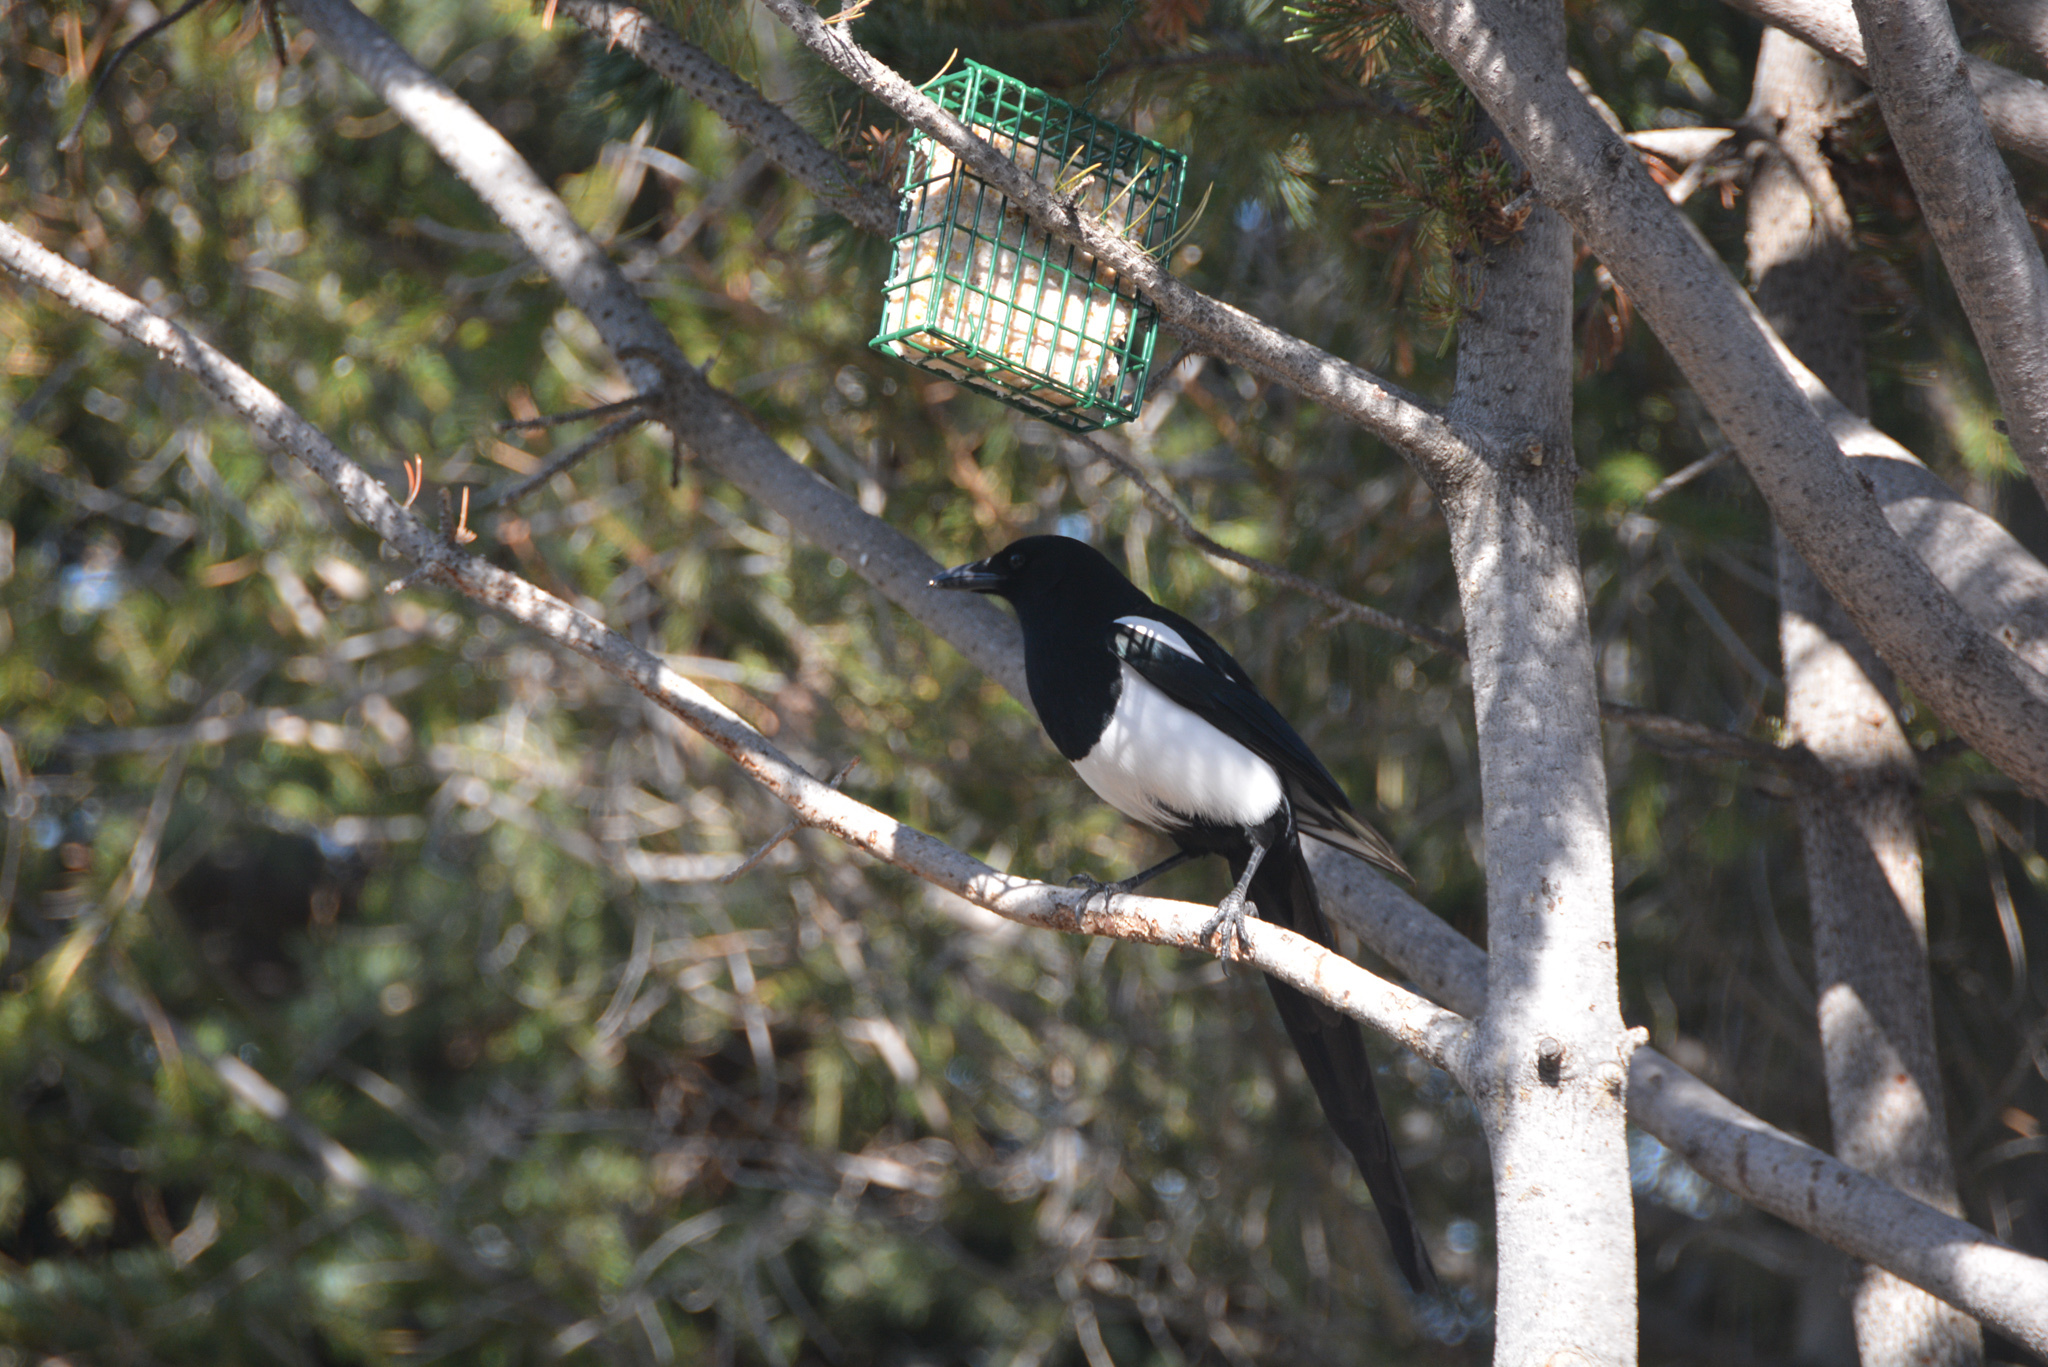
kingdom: Animalia
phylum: Chordata
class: Aves
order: Passeriformes
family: Corvidae
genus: Pica
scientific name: Pica hudsonia
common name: Black-billed magpie
